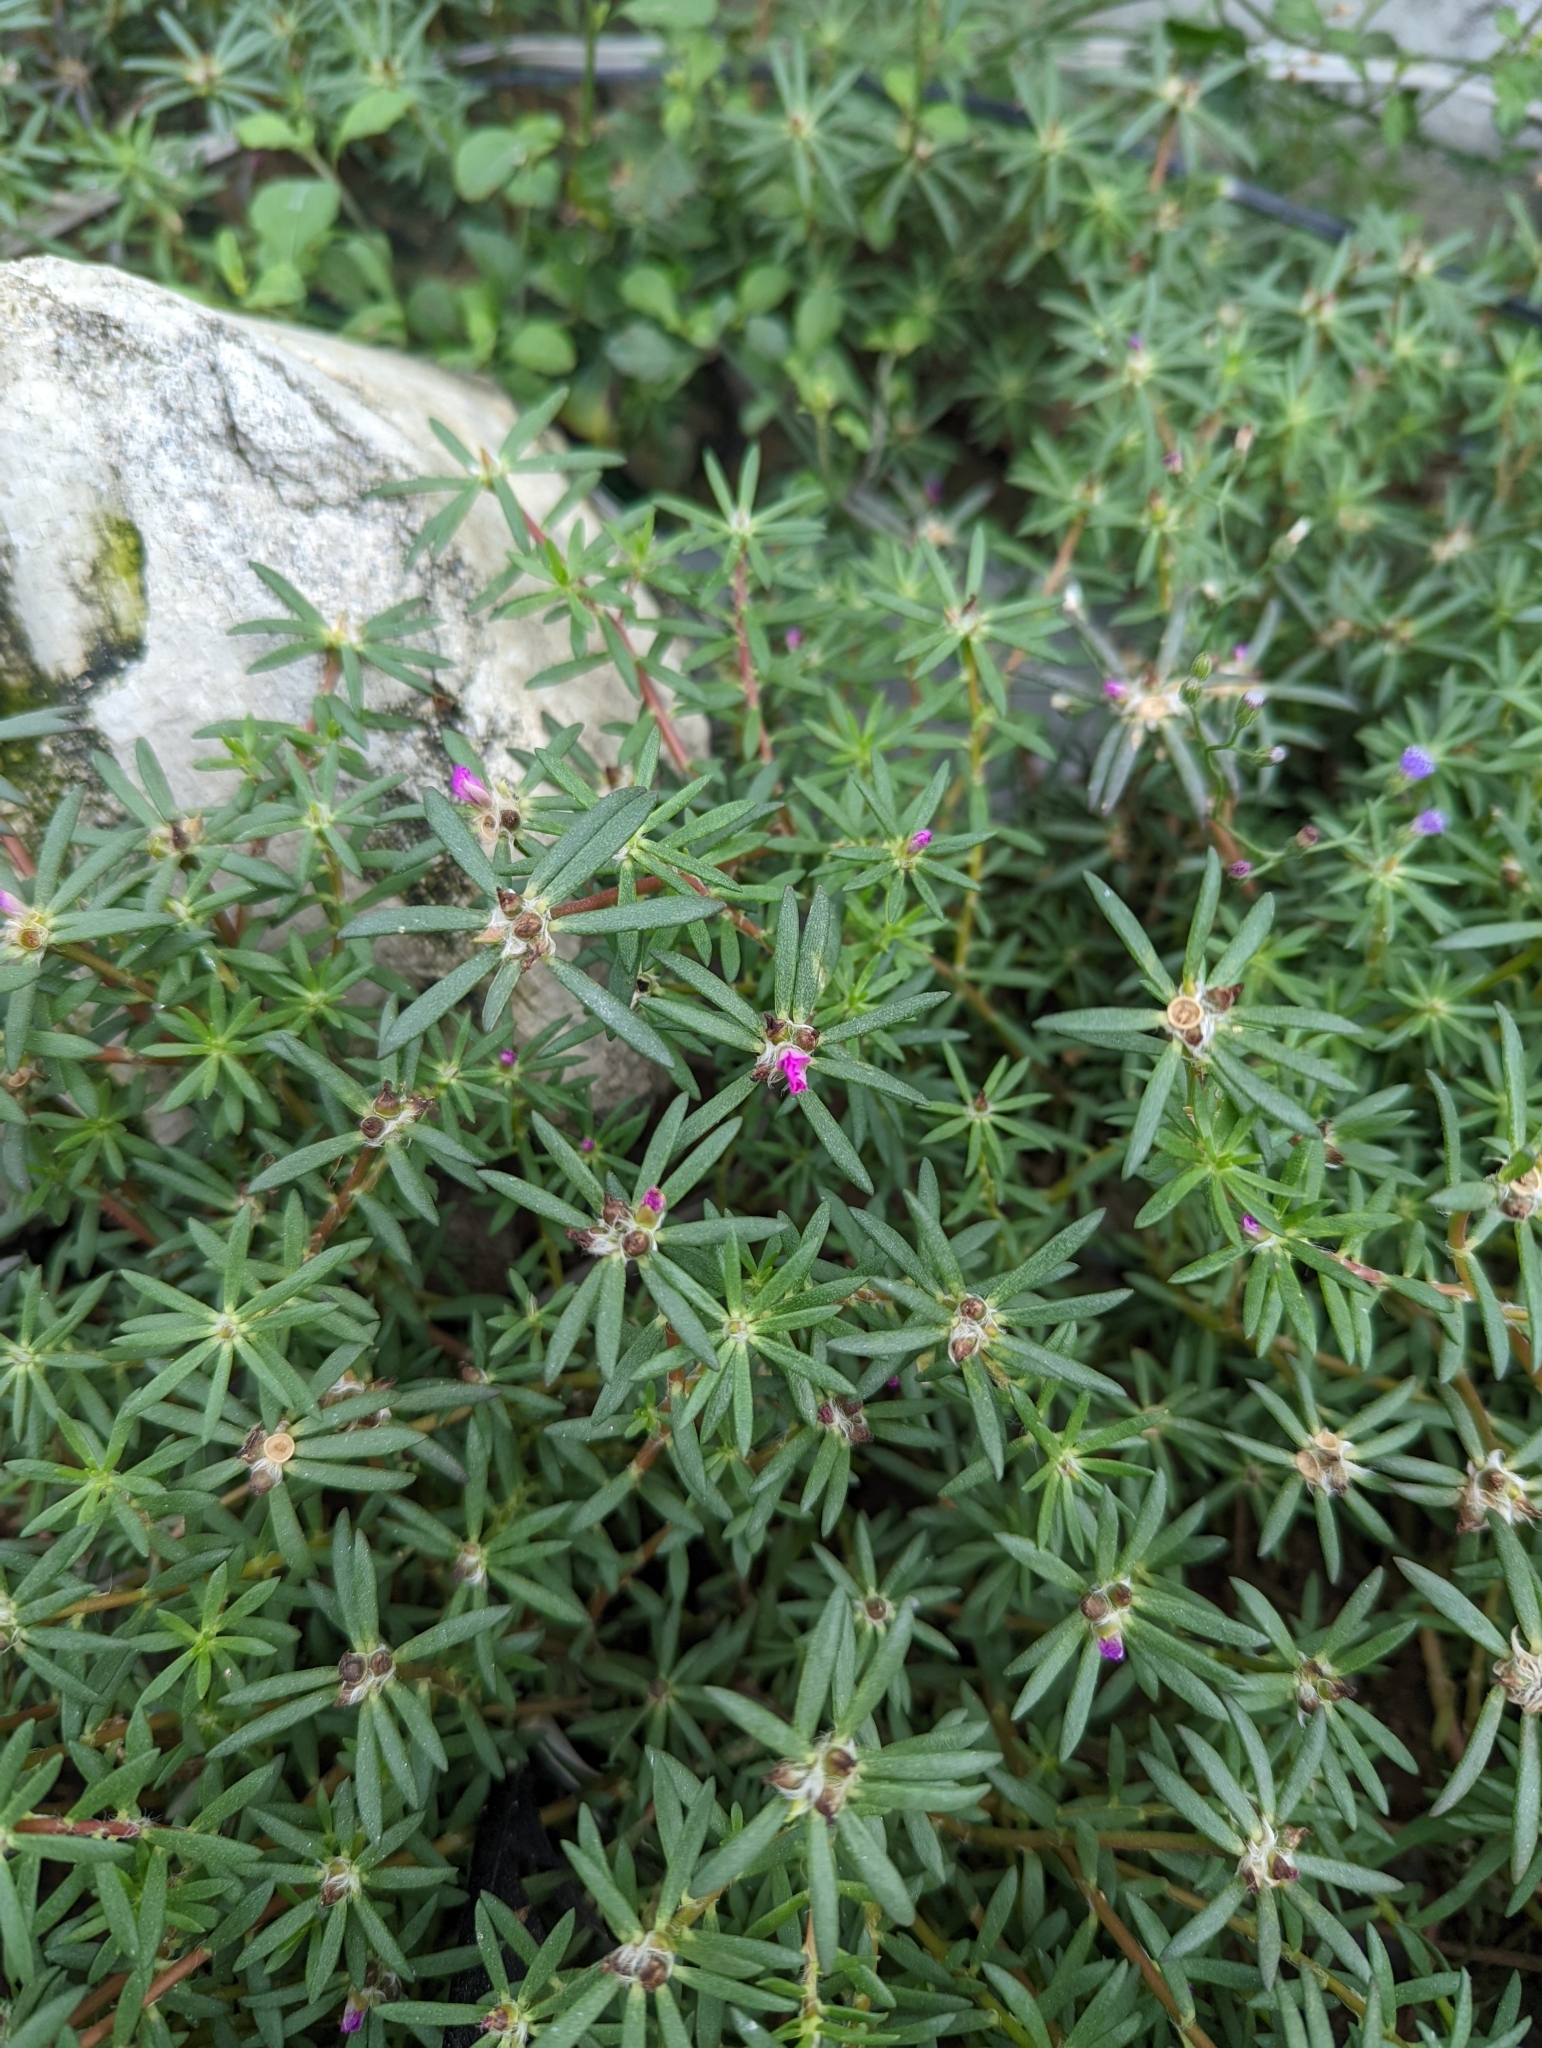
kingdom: Plantae
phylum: Tracheophyta
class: Magnoliopsida
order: Caryophyllales
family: Portulacaceae
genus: Portulaca
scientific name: Portulaca pilosa
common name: Kiss me quick
